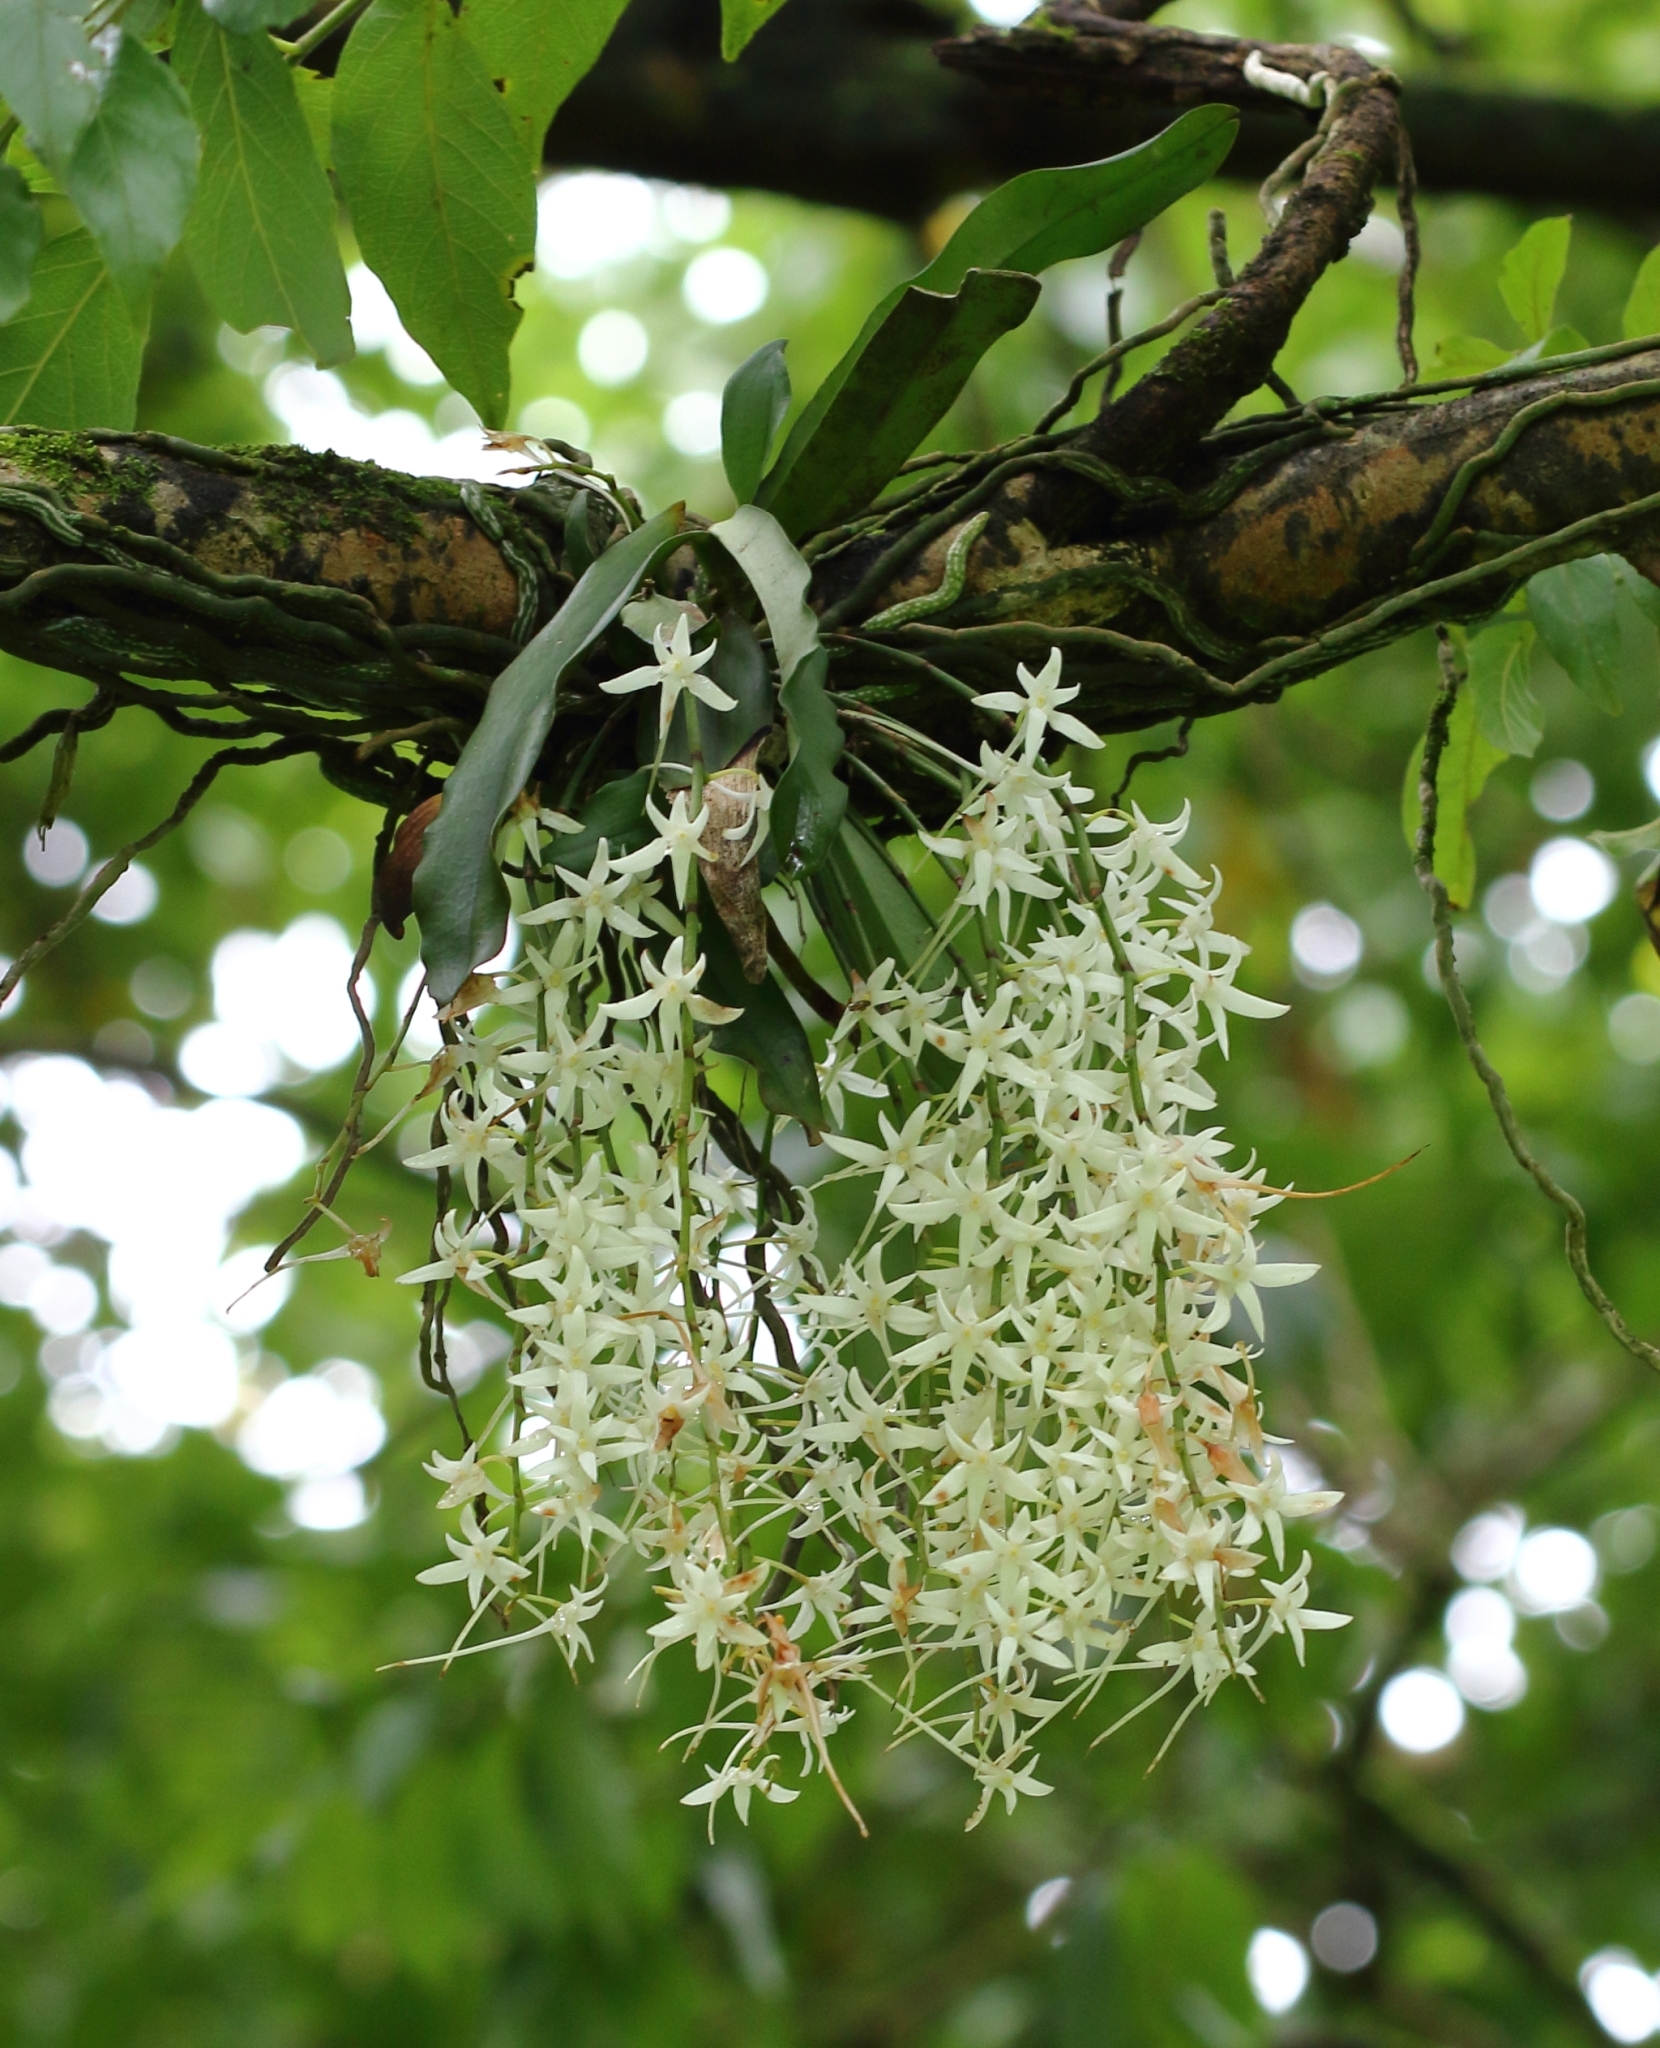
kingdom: Plantae
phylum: Tracheophyta
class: Liliopsida
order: Asparagales
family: Orchidaceae
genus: Mystacidium
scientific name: Mystacidium capense
